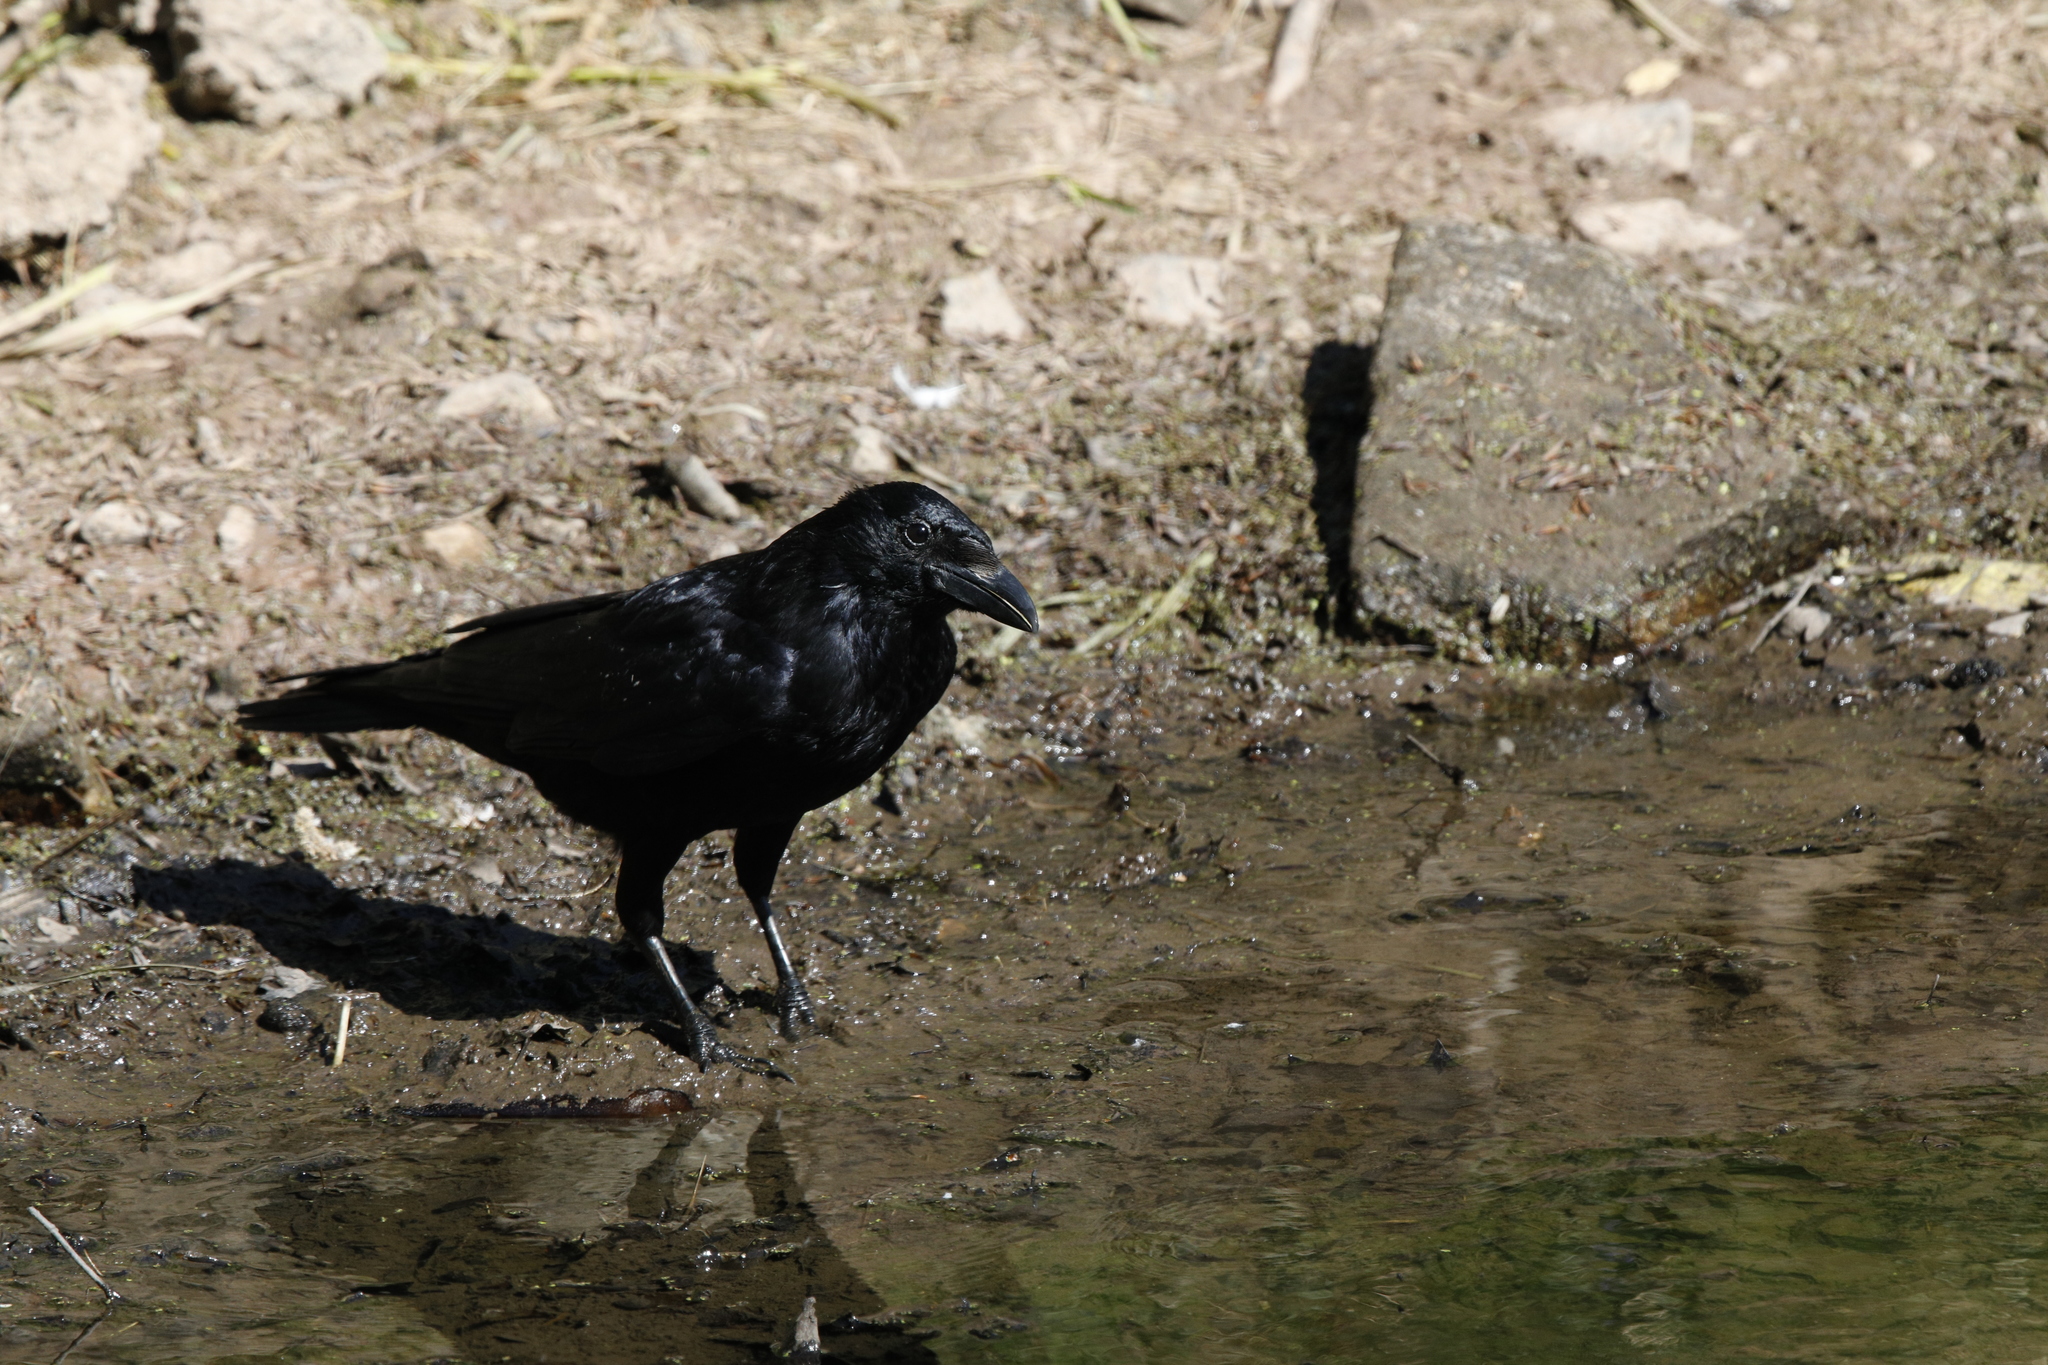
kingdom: Animalia
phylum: Chordata
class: Aves
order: Passeriformes
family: Corvidae
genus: Corvus
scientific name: Corvus corone
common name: Carrion crow
